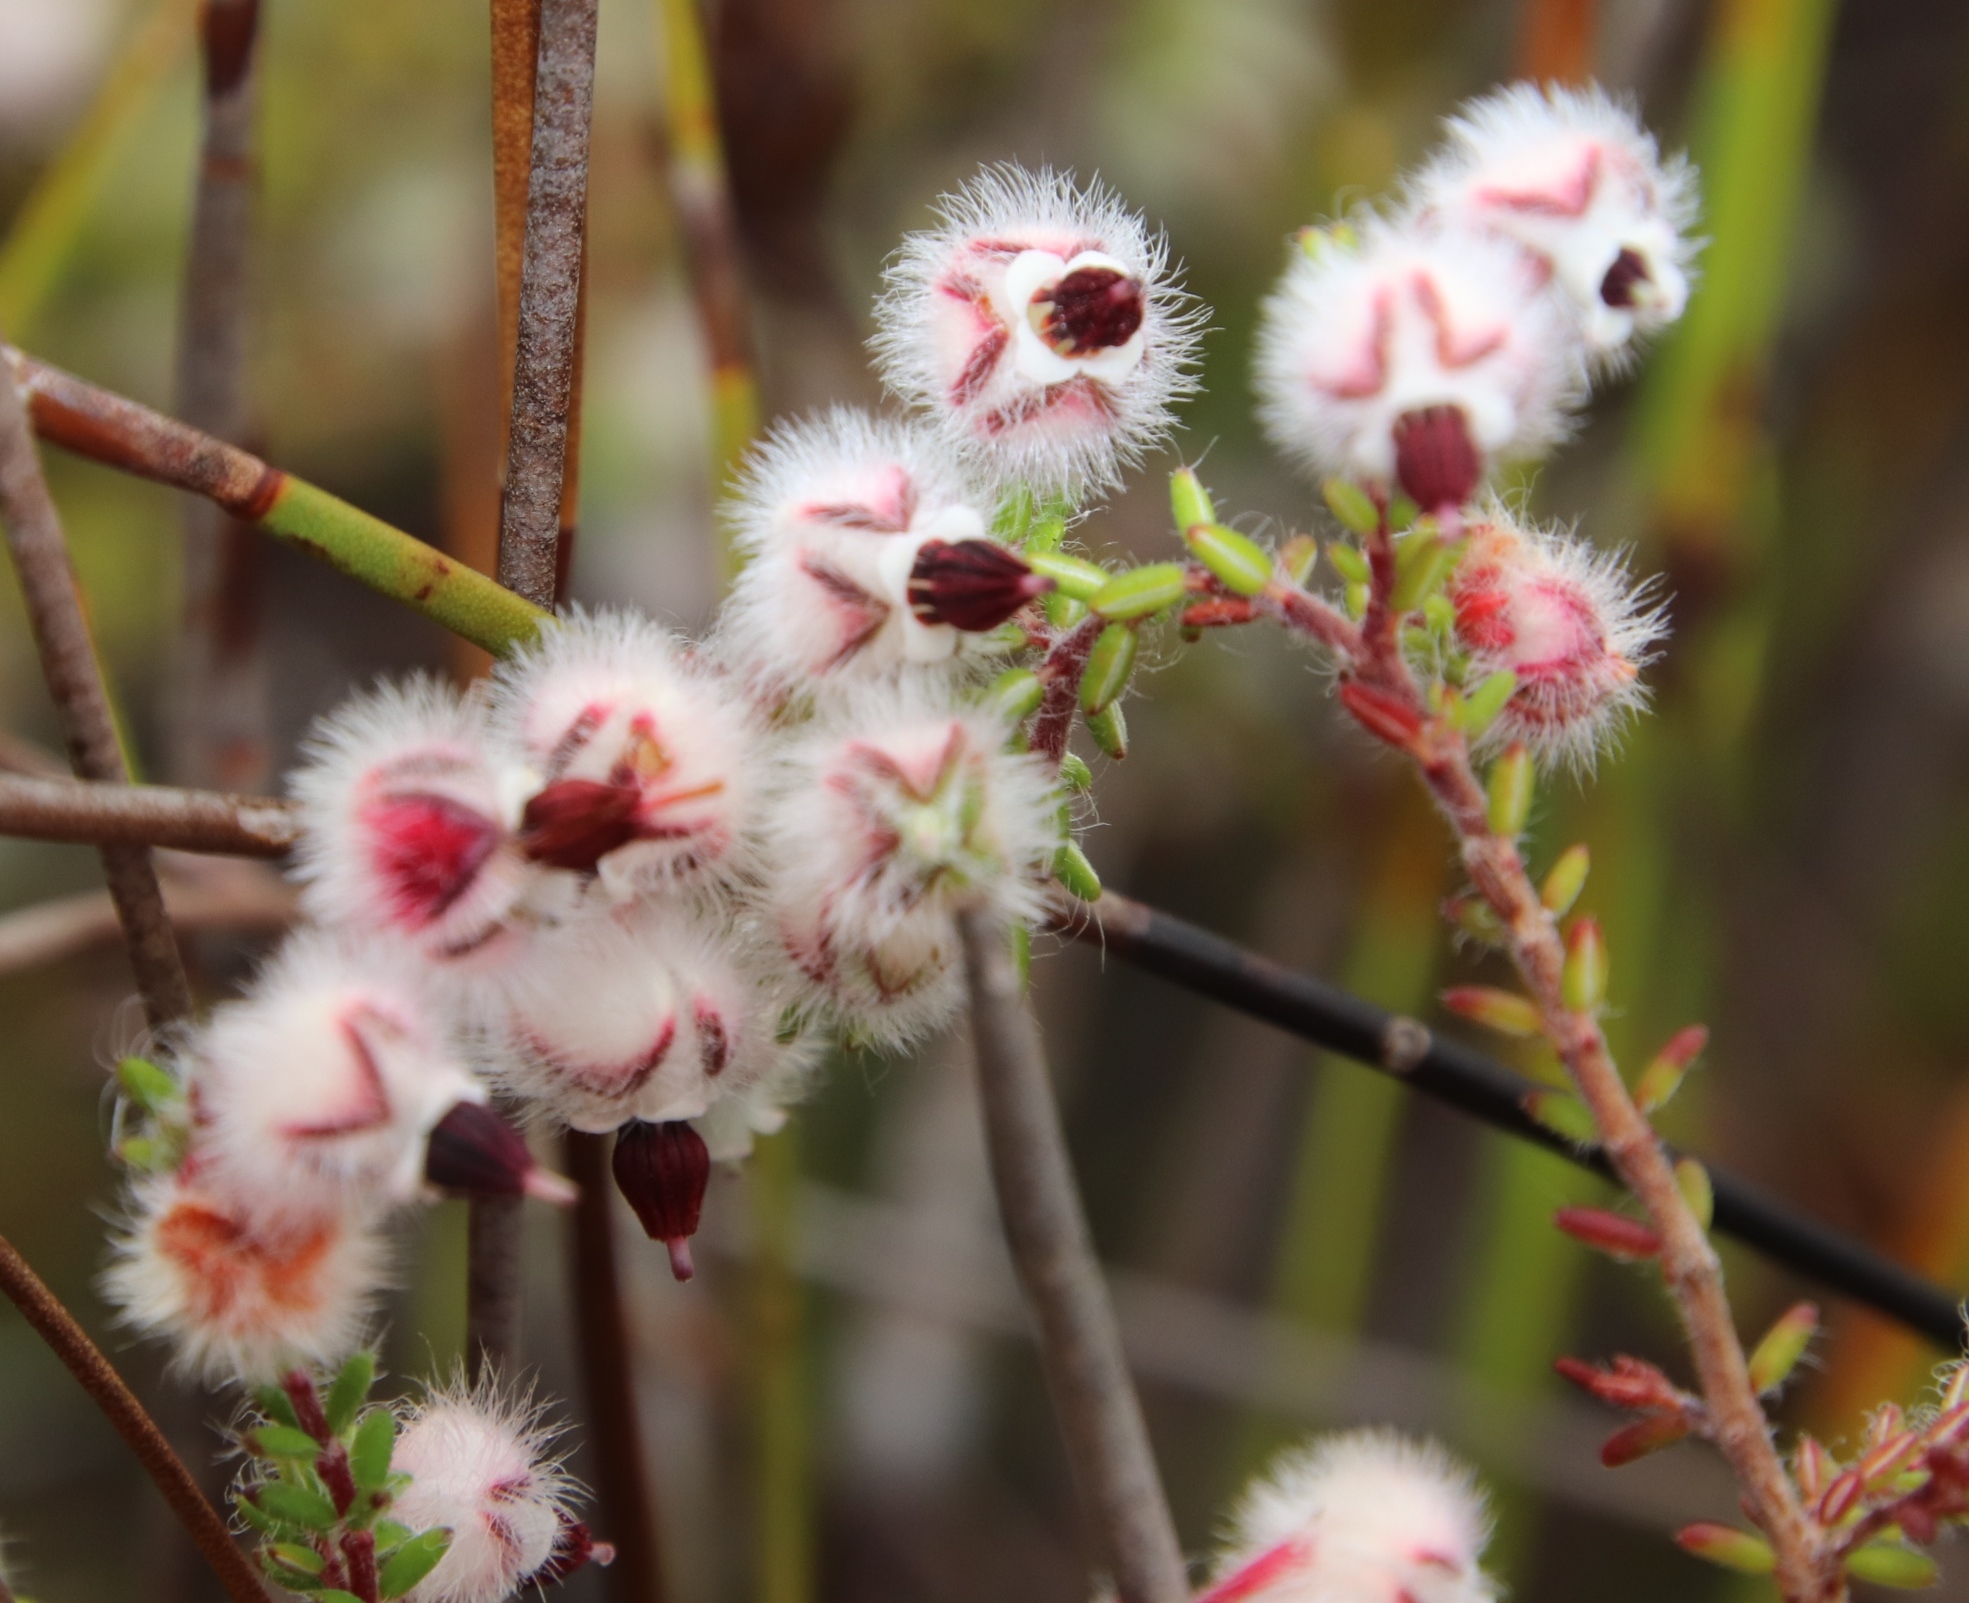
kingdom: Plantae
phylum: Tracheophyta
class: Magnoliopsida
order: Ericales
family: Ericaceae
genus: Erica
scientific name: Erica bruniades
